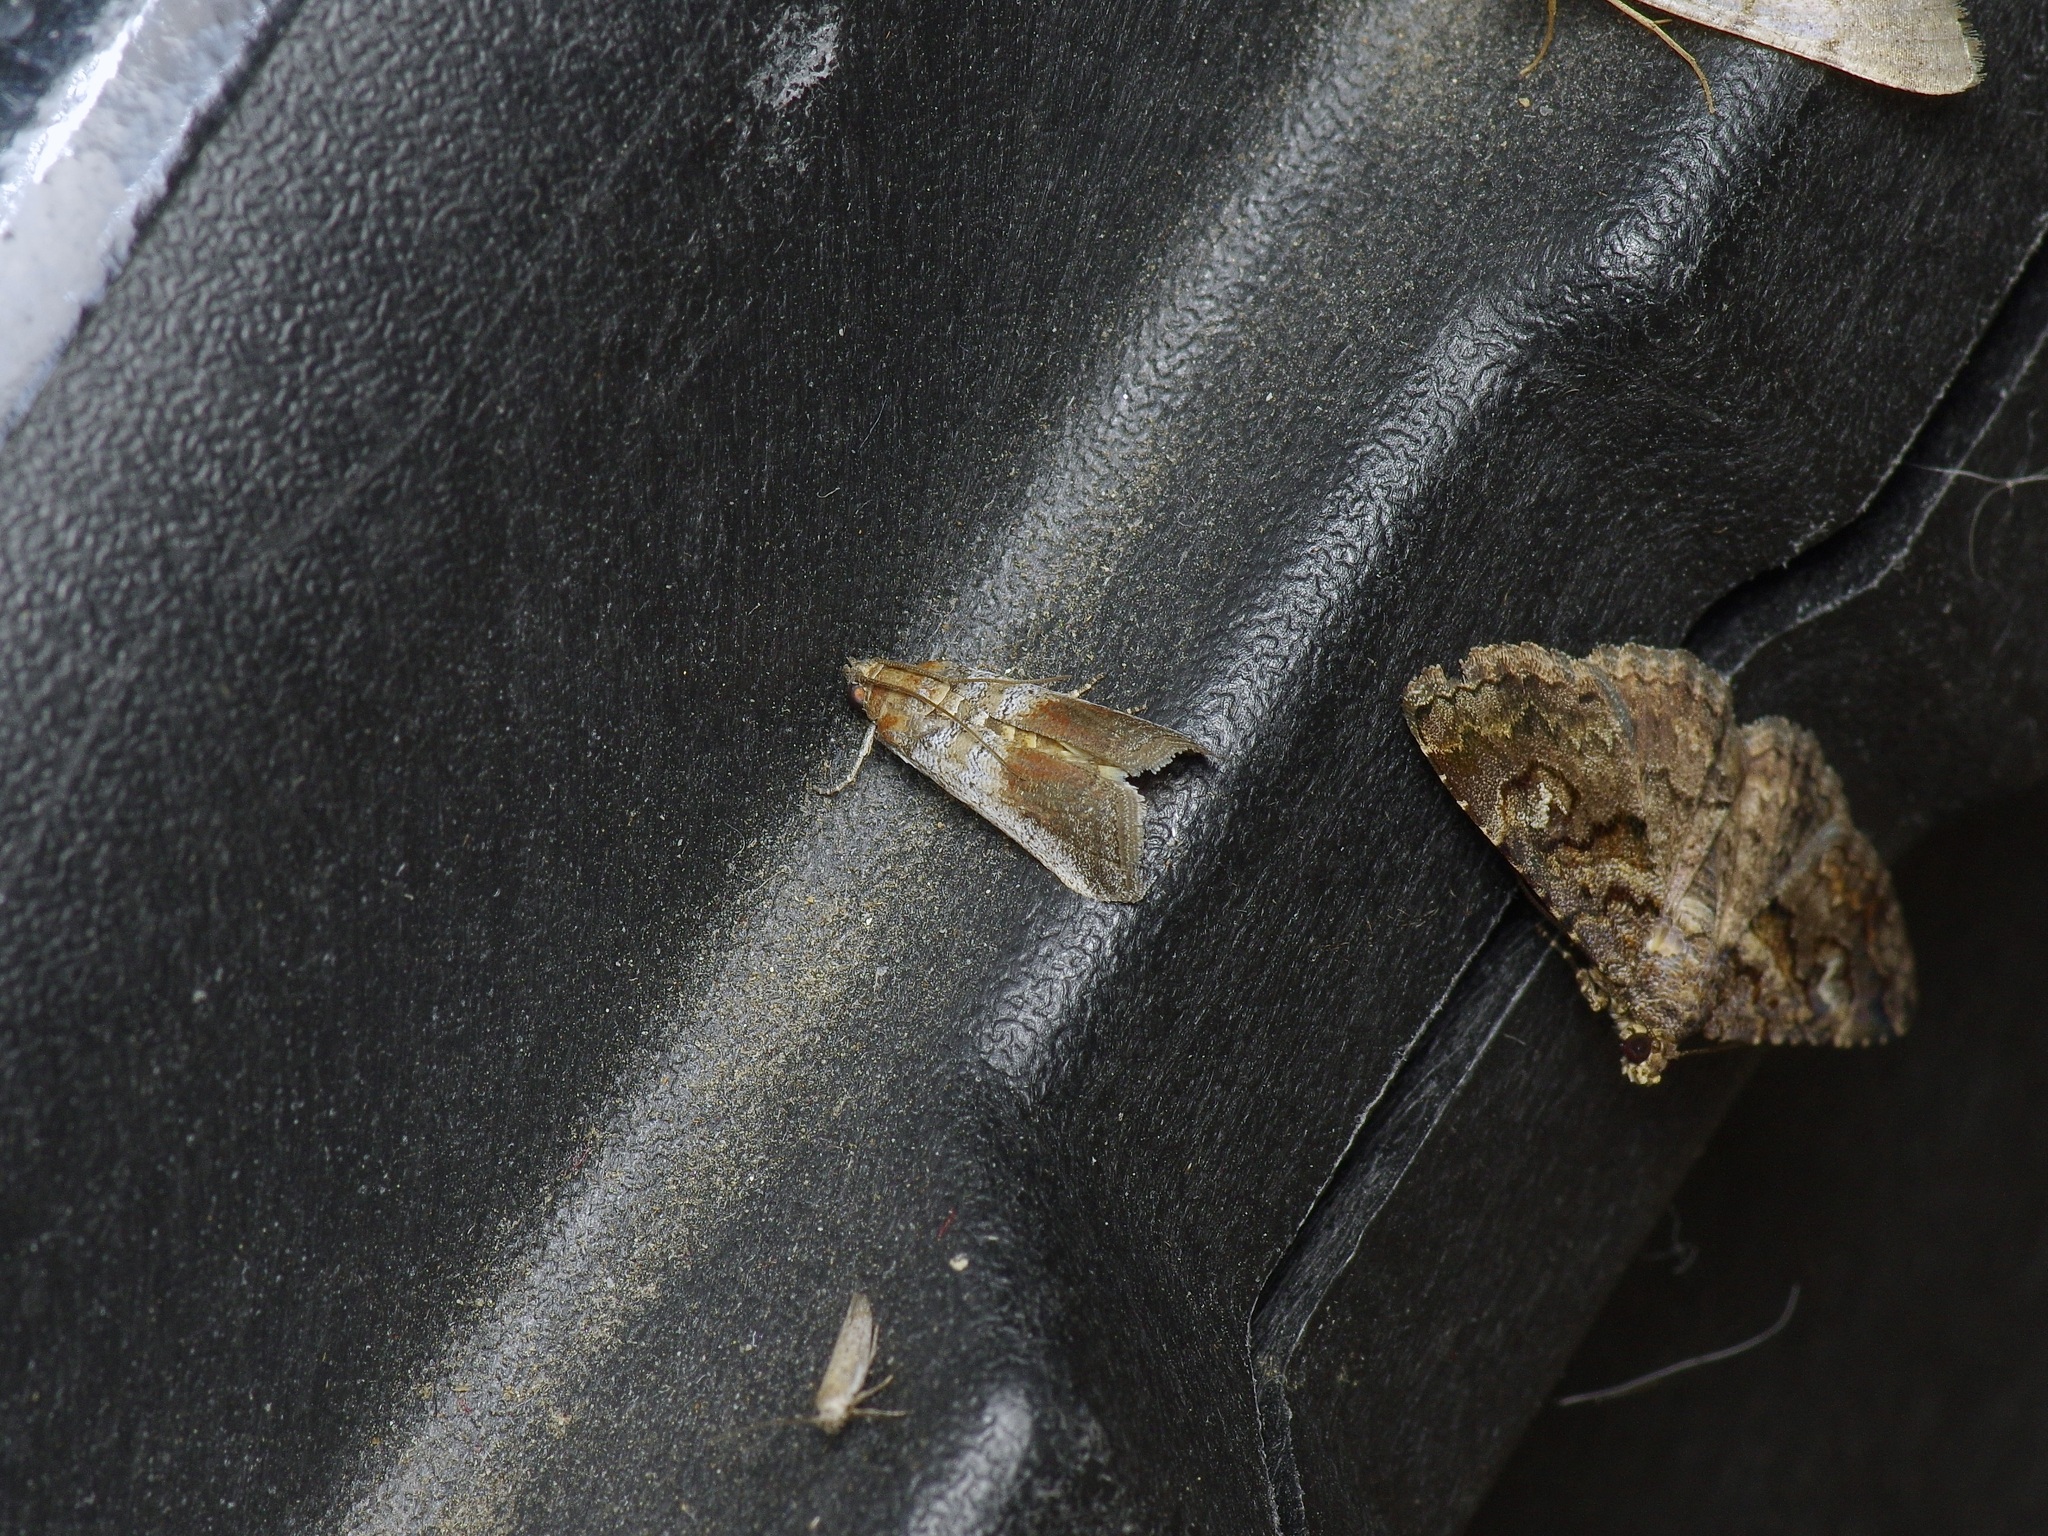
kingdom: Animalia
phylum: Arthropoda
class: Insecta
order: Lepidoptera
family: Pyralidae
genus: Chararica
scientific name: Chararica hystriculella
